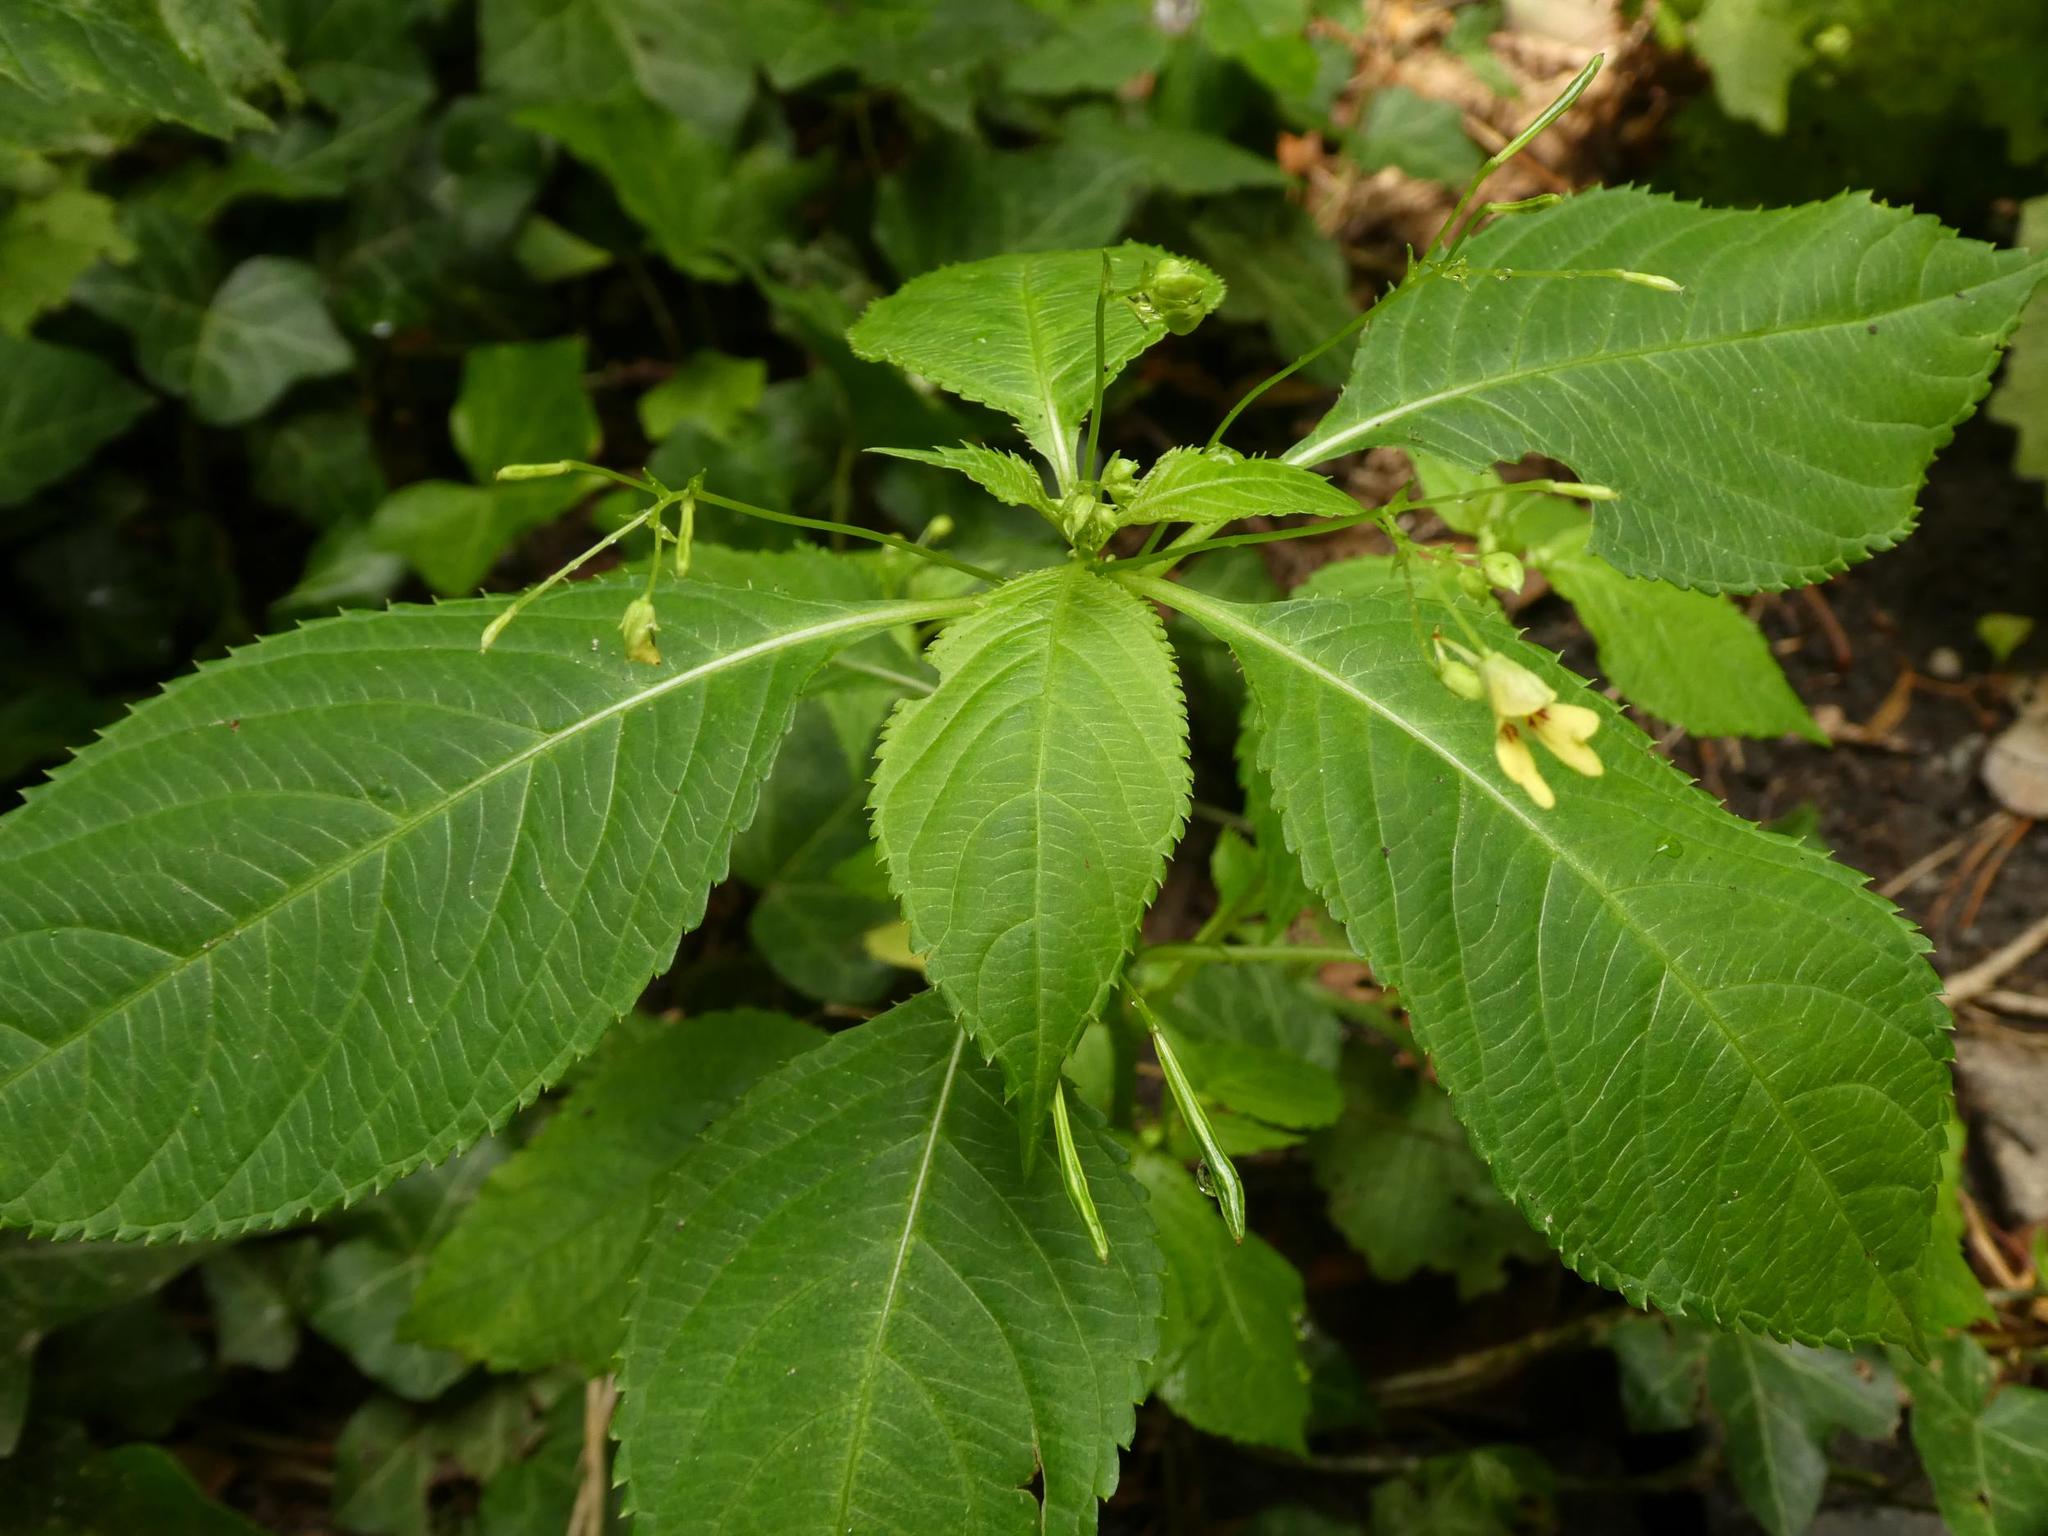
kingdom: Plantae
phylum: Tracheophyta
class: Magnoliopsida
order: Ericales
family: Balsaminaceae
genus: Impatiens
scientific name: Impatiens parviflora
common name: Small balsam
